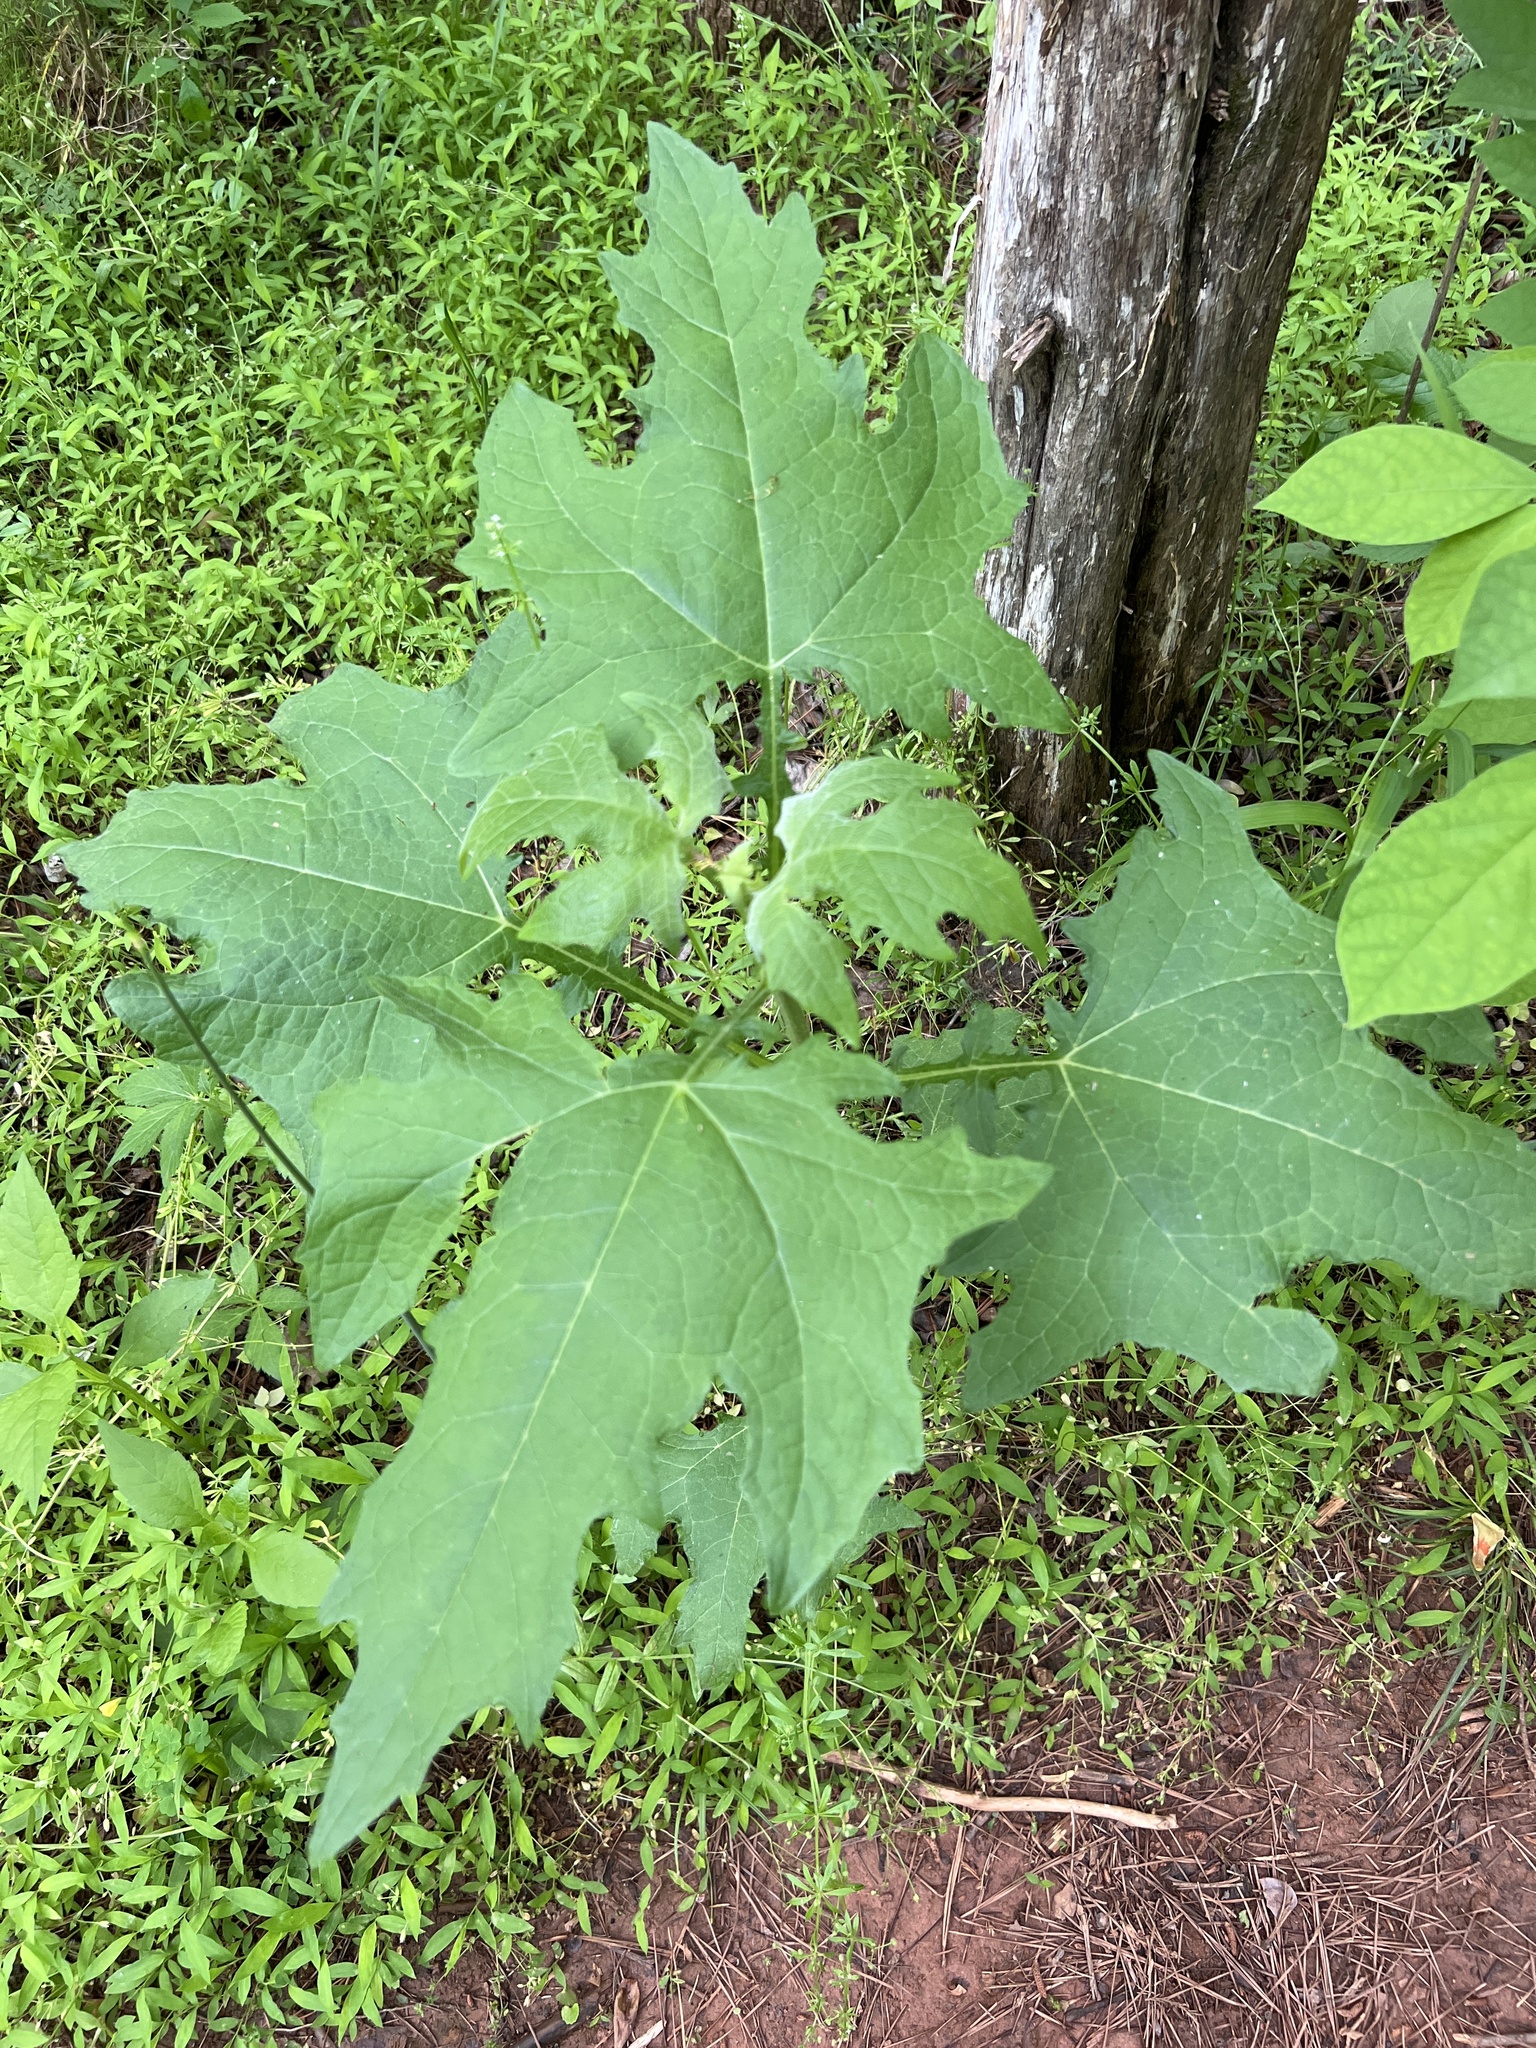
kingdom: Plantae
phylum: Tracheophyta
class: Magnoliopsida
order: Asterales
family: Asteraceae
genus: Smallanthus
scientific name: Smallanthus uvedalia
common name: Bear's-foot
